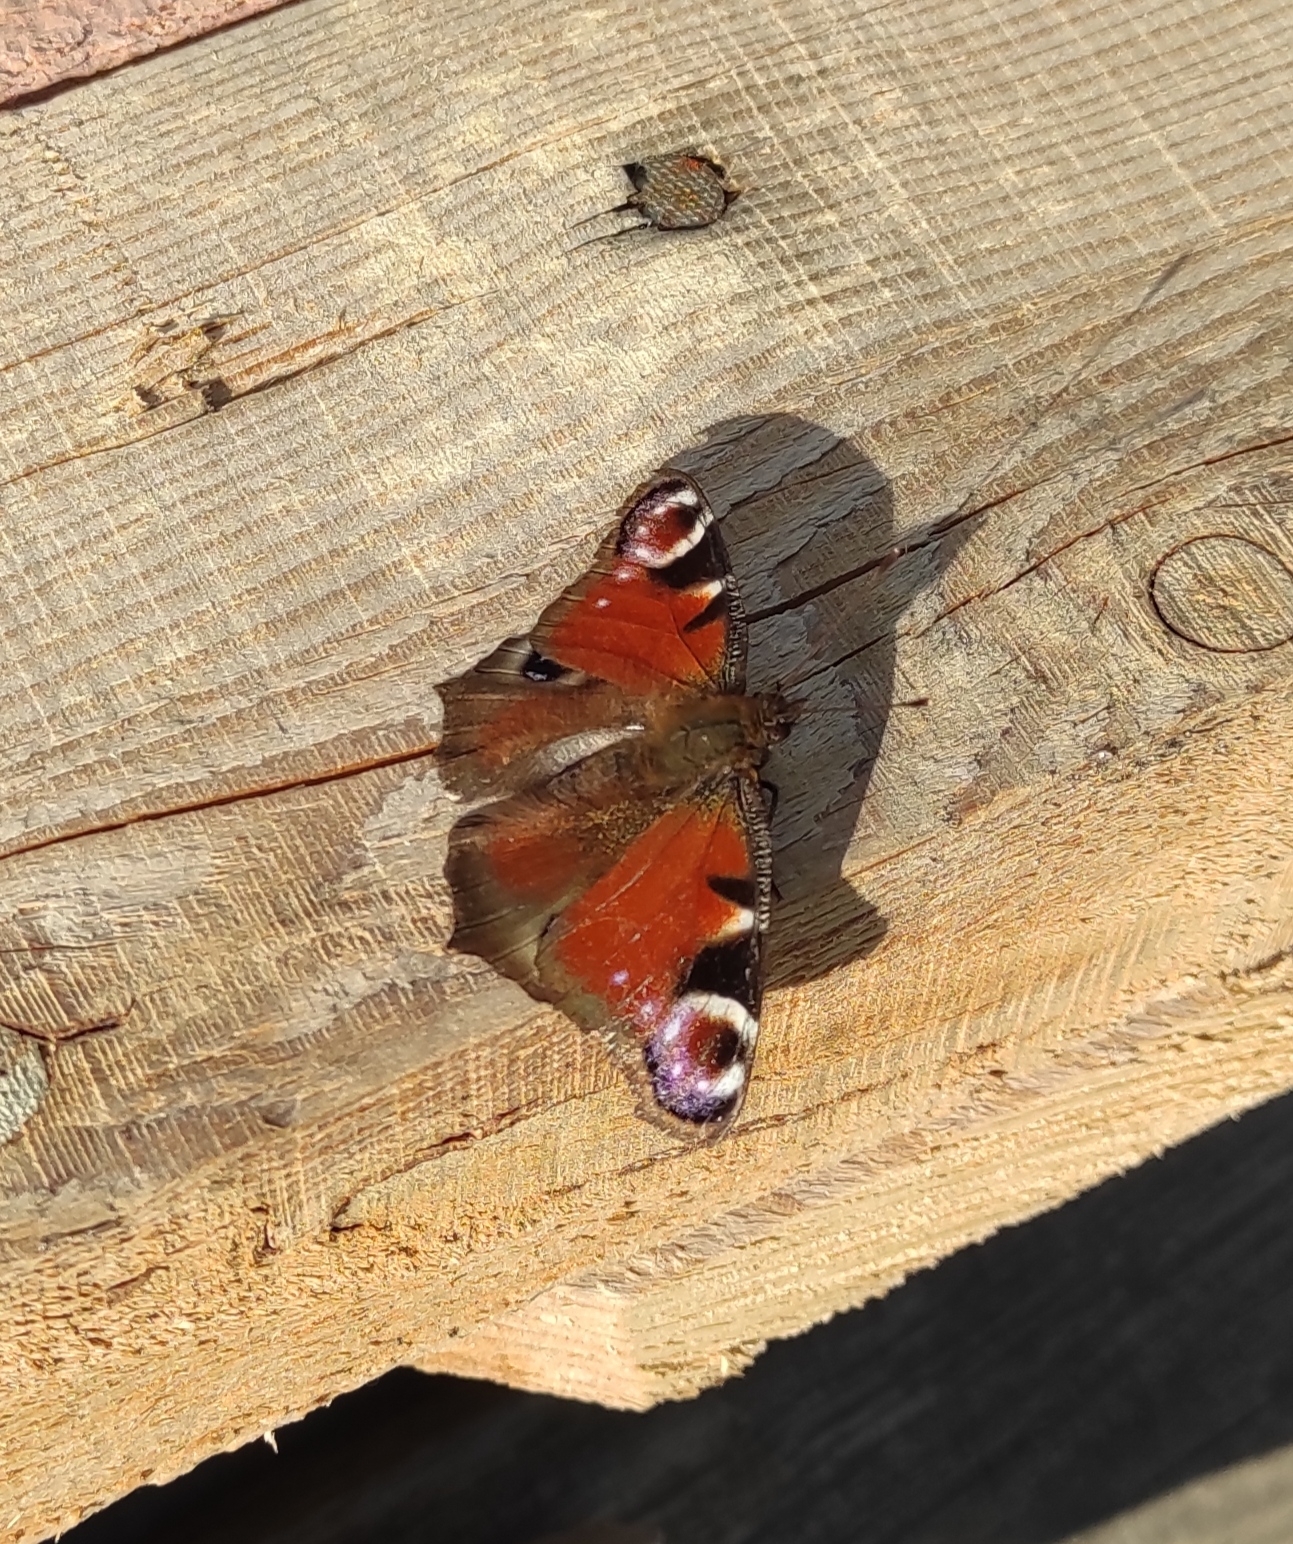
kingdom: Animalia
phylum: Arthropoda
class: Insecta
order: Lepidoptera
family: Nymphalidae
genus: Aglais
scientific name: Aglais io
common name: Peacock
